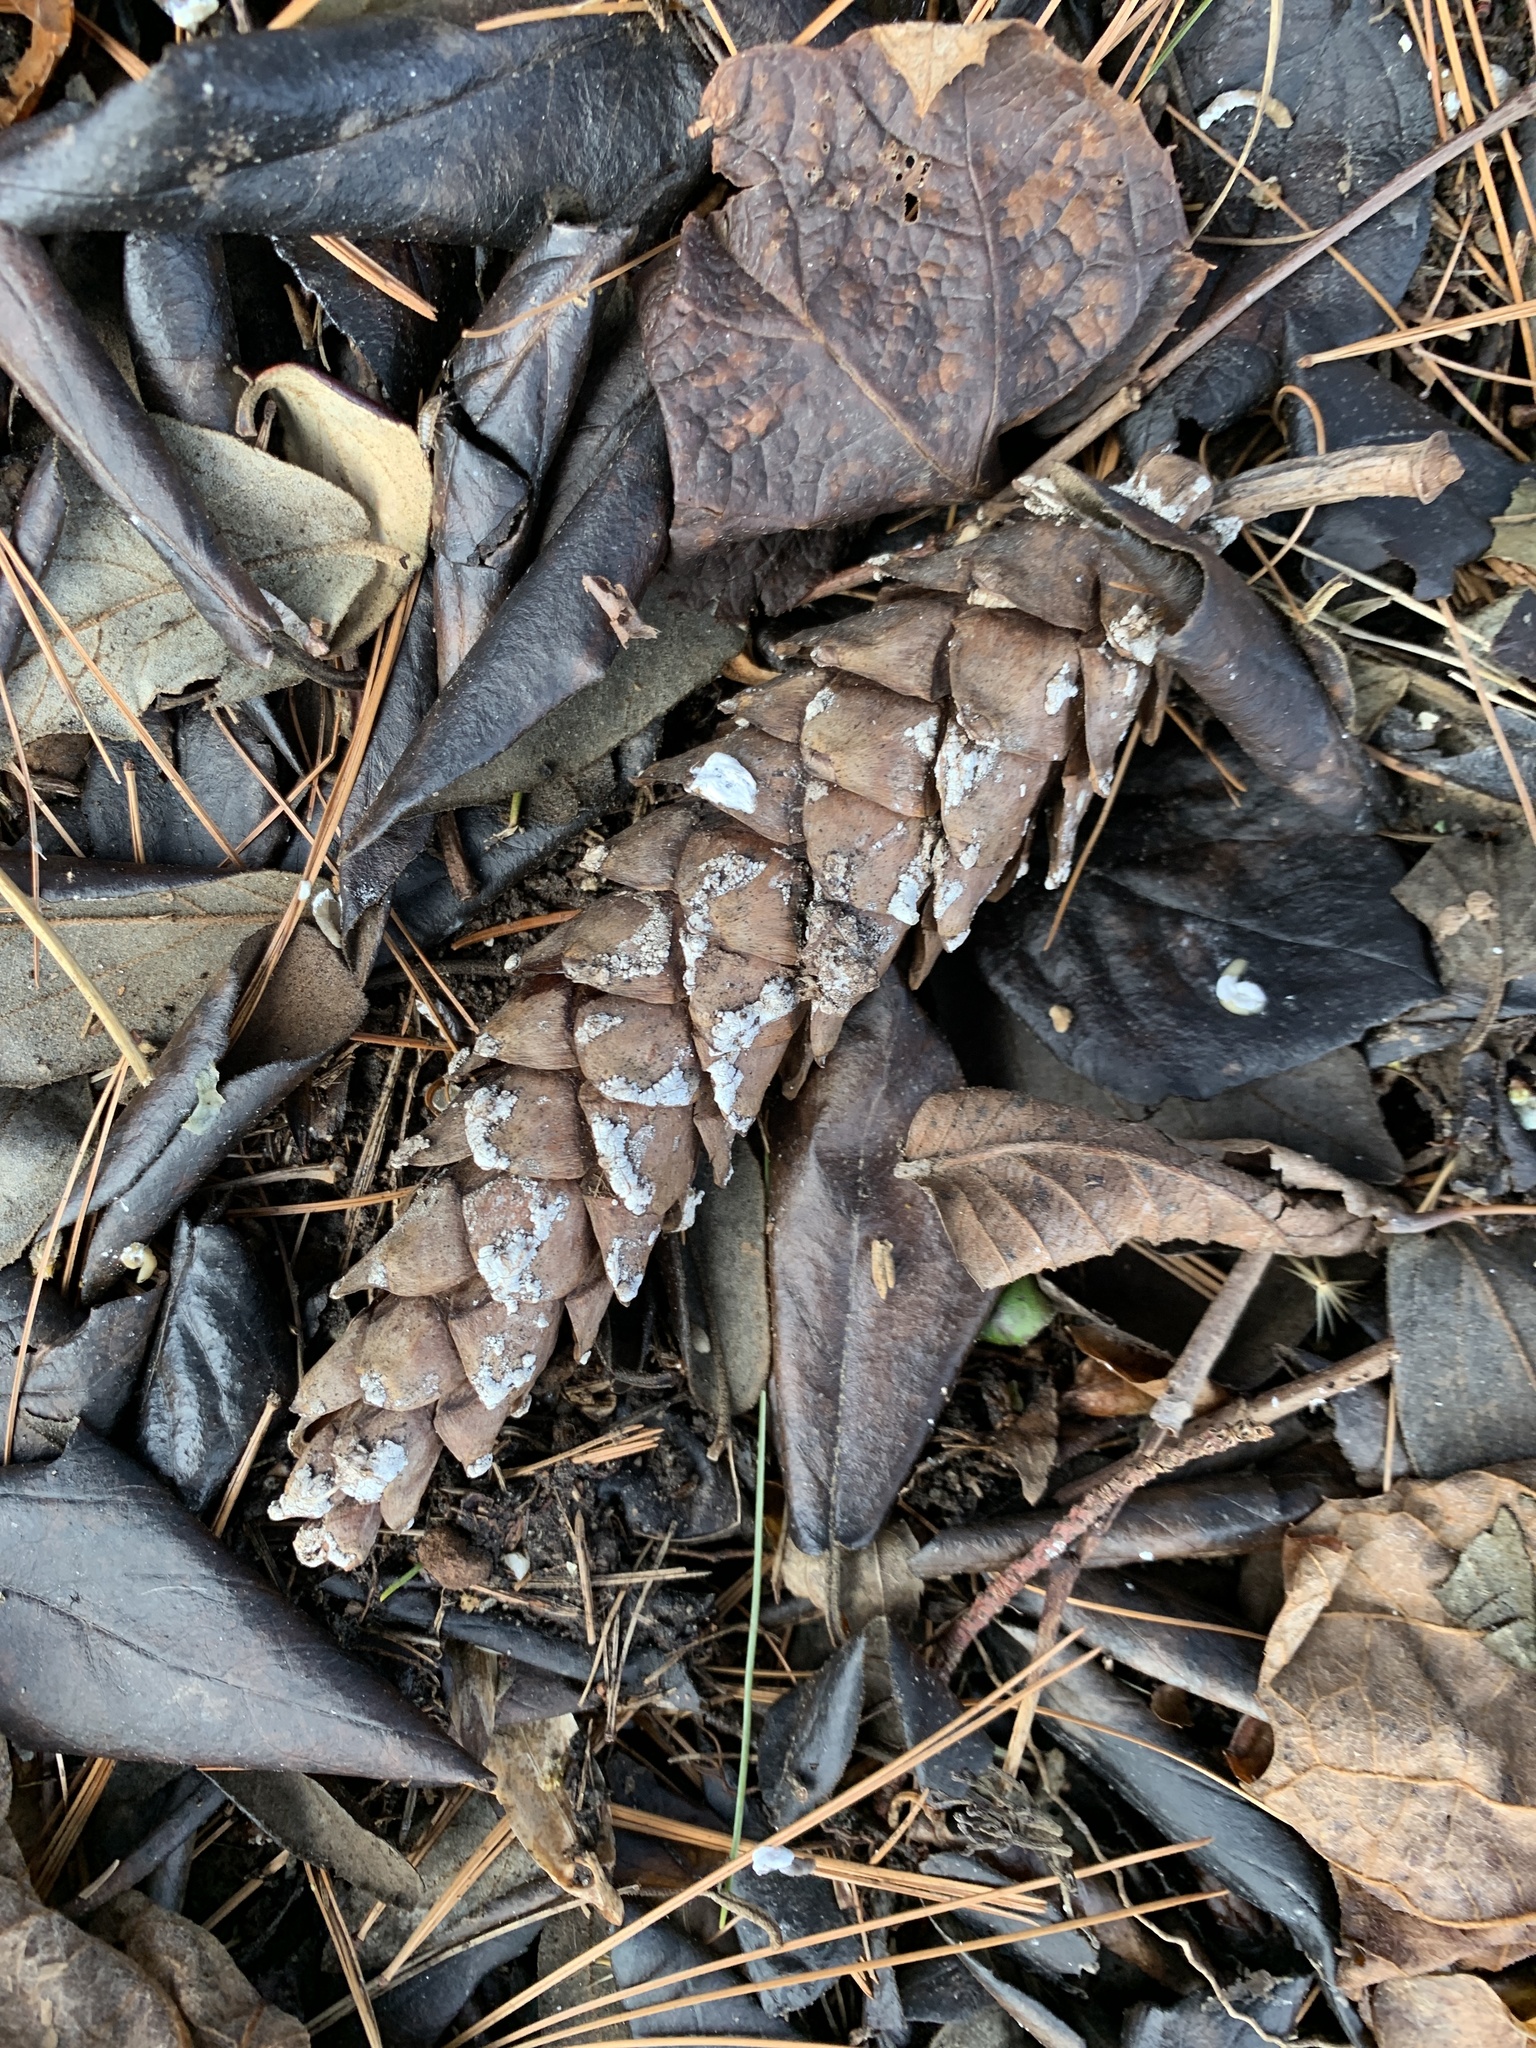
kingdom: Plantae
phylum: Tracheophyta
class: Pinopsida
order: Pinales
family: Pinaceae
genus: Pinus
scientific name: Pinus strobus
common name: Weymouth pine
